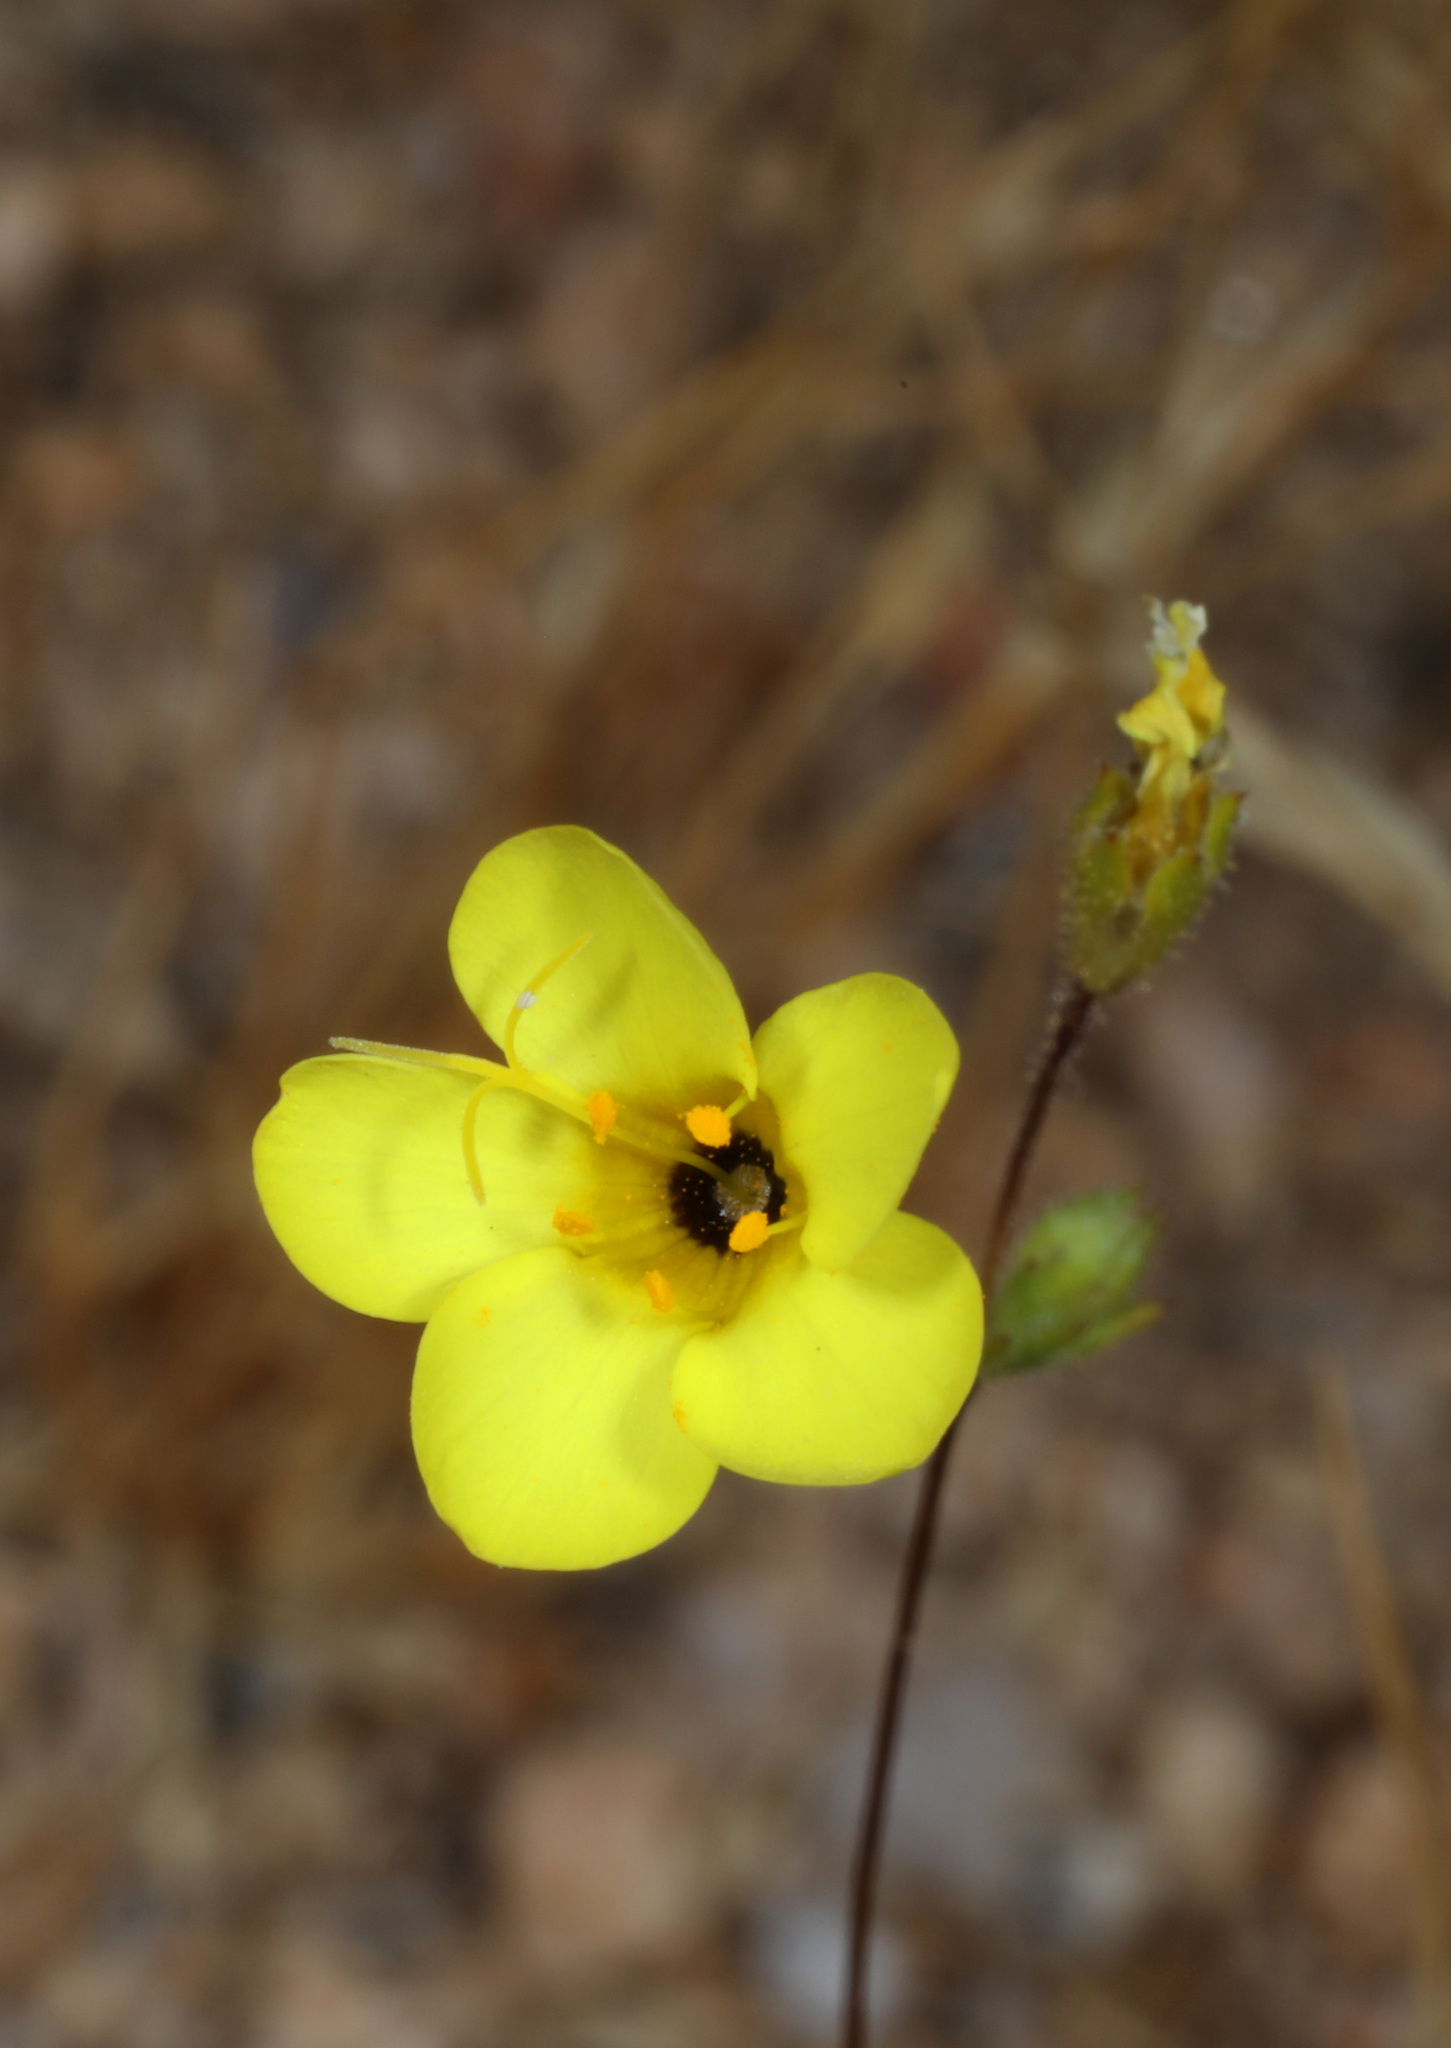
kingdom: Plantae
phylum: Tracheophyta
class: Magnoliopsida
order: Ericales
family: Polemoniaceae
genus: Leptosiphon
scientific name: Leptosiphon chrysanthus
